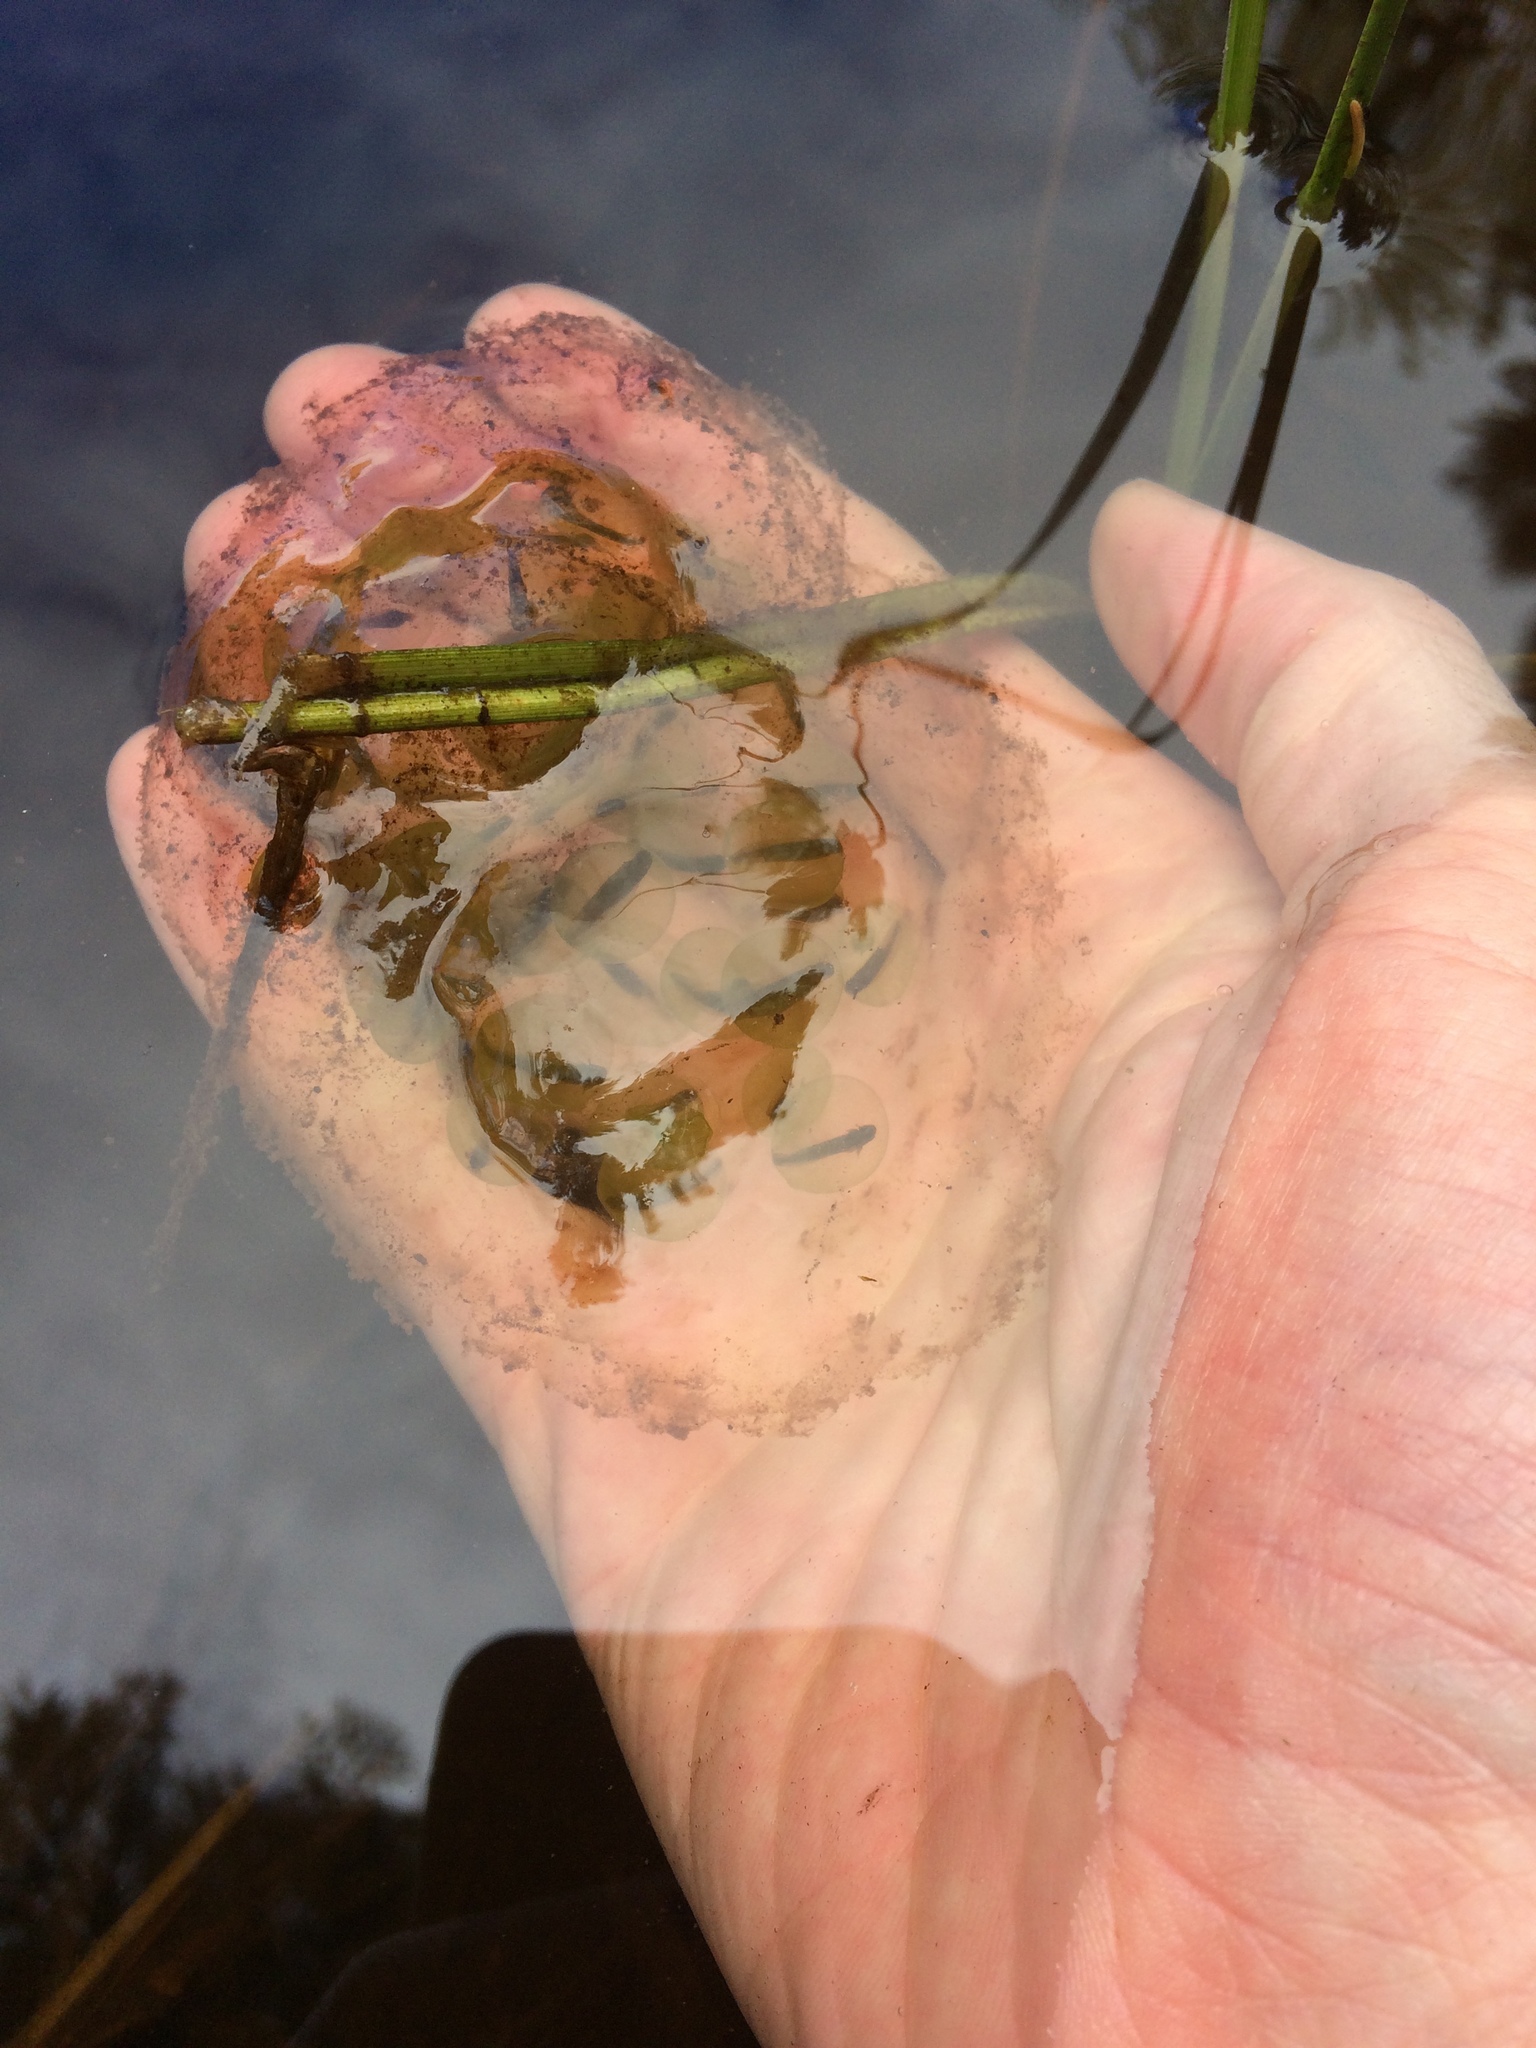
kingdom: Animalia
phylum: Chordata
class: Amphibia
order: Caudata
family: Ambystomatidae
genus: Ambystoma
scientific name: Ambystoma maculatum
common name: Spotted salamander
